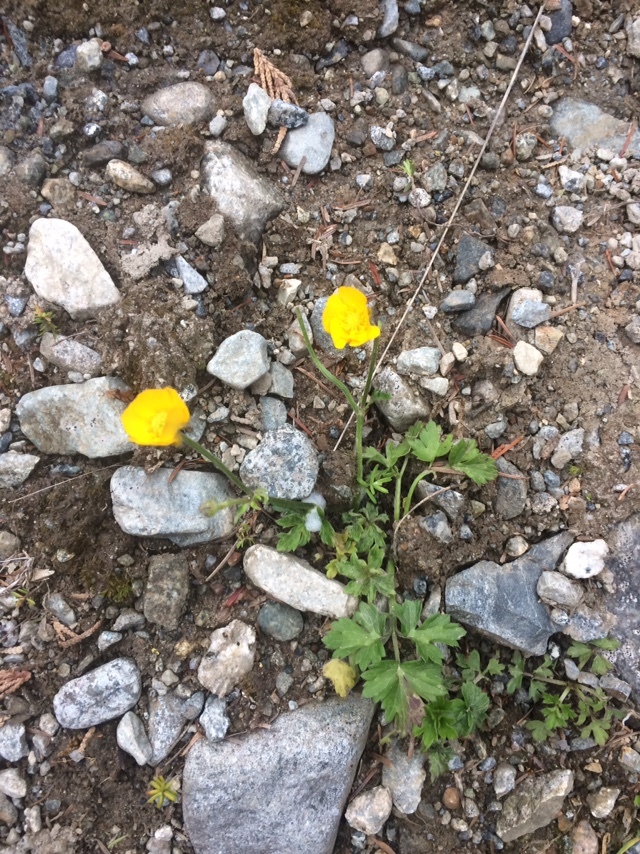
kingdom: Plantae
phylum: Tracheophyta
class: Magnoliopsida
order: Ranunculales
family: Ranunculaceae
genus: Ranunculus
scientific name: Ranunculus repens
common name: Creeping buttercup
